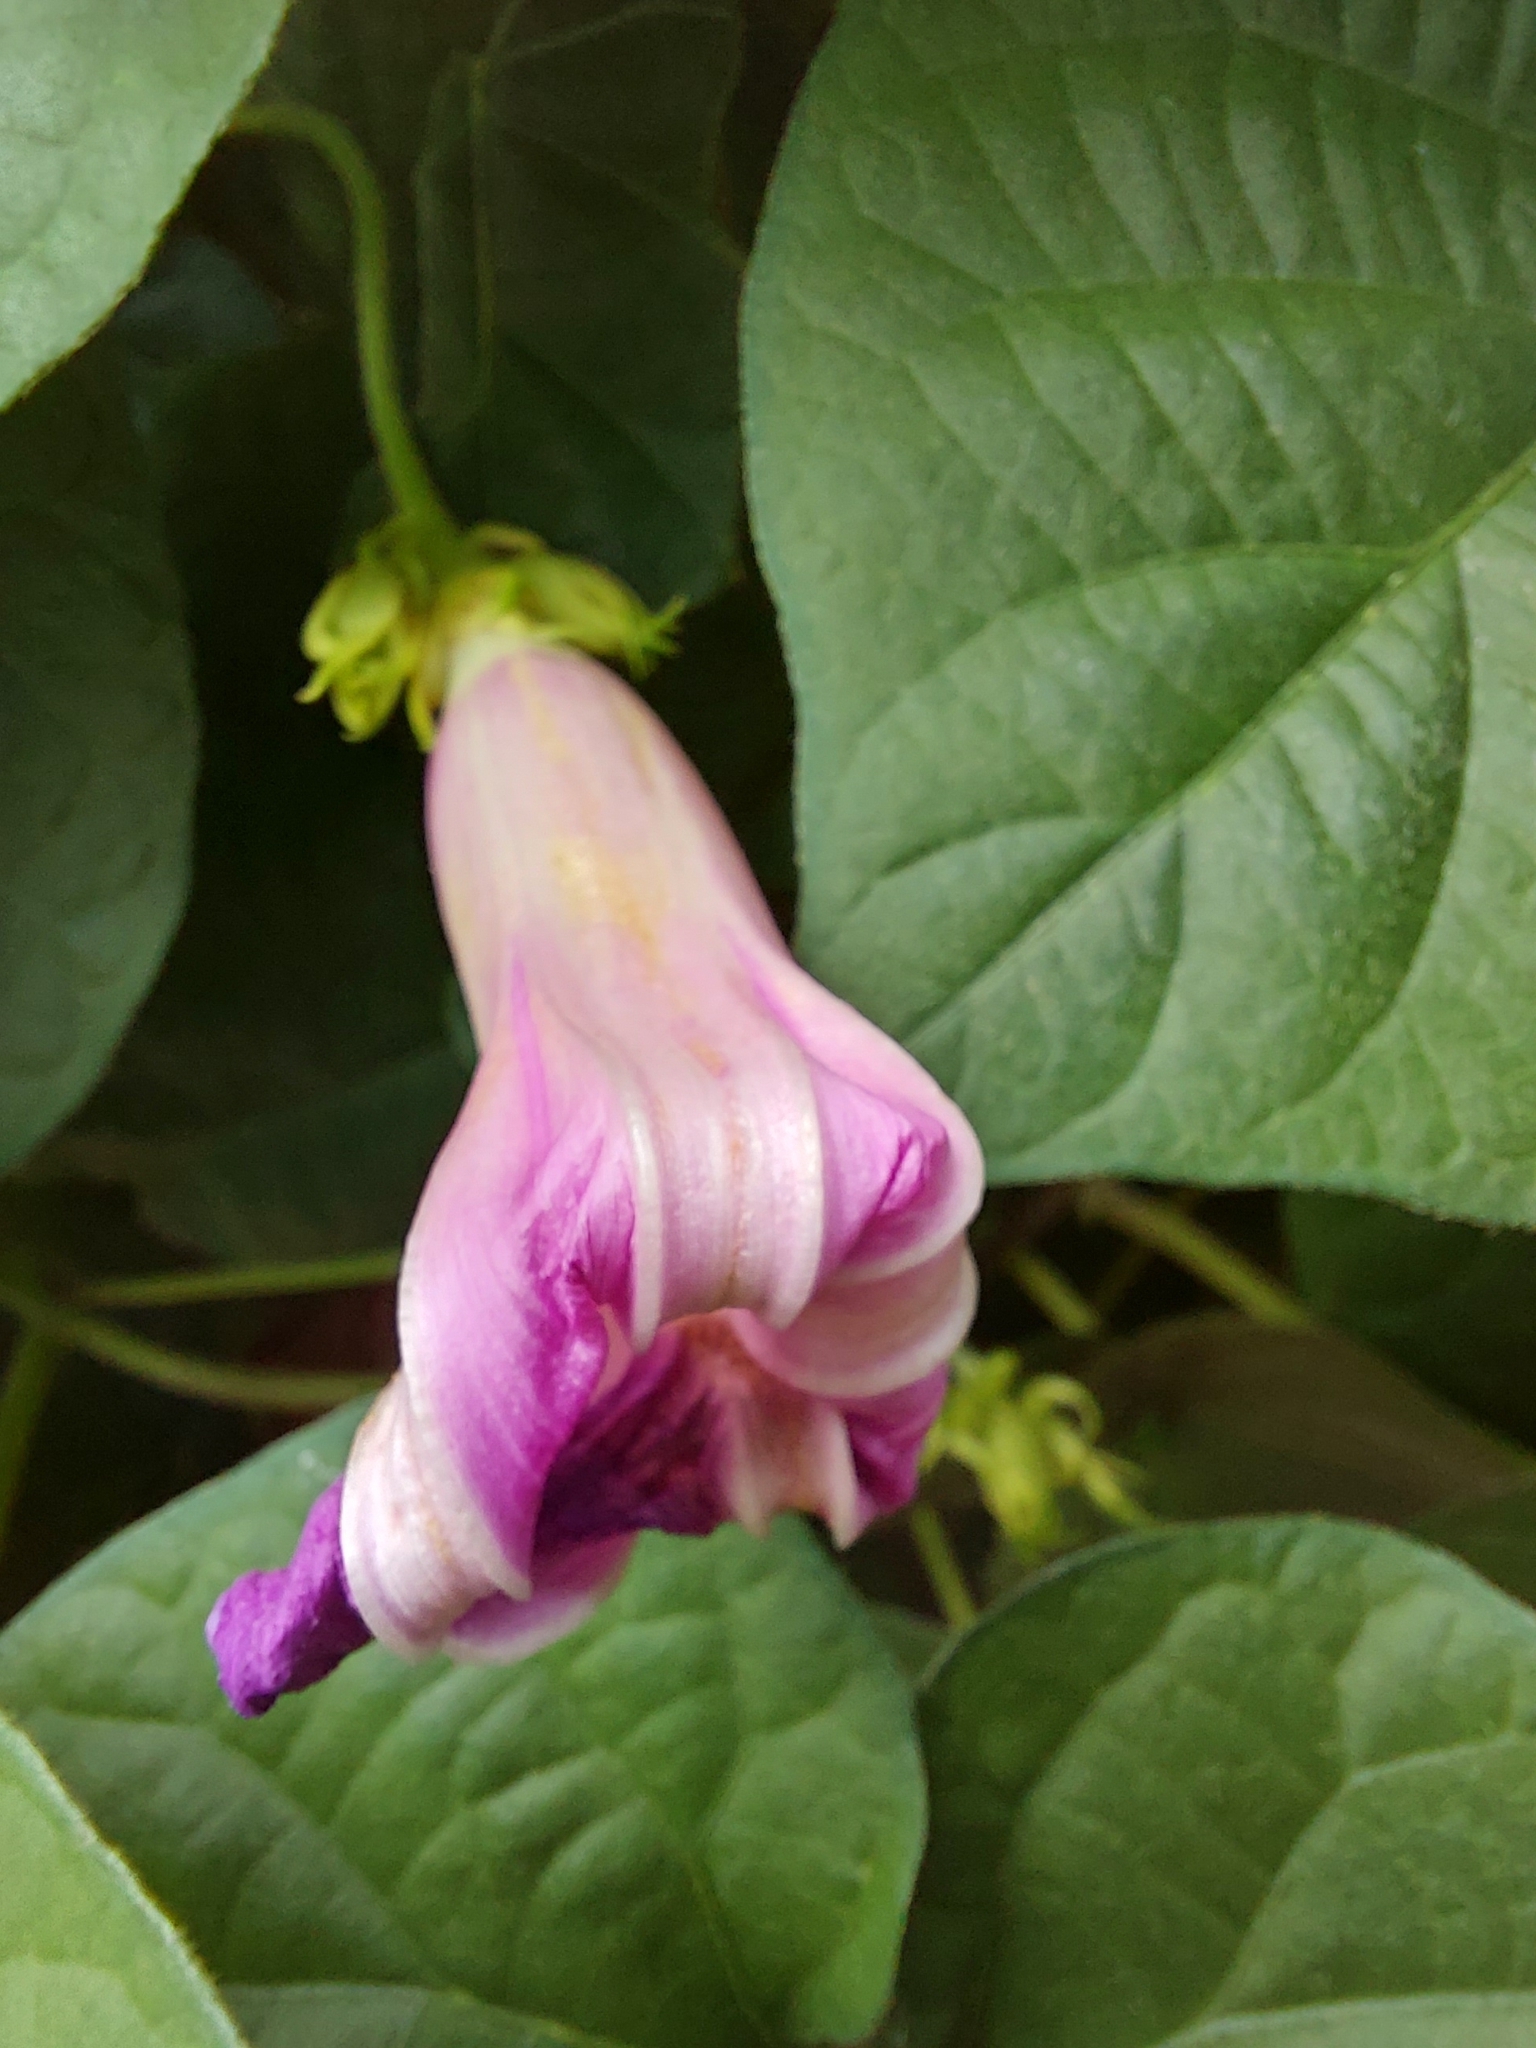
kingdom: Plantae
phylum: Tracheophyta
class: Magnoliopsida
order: Solanales
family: Convolvulaceae
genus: Ipomoea
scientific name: Ipomoea indica
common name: Blue dawnflower
